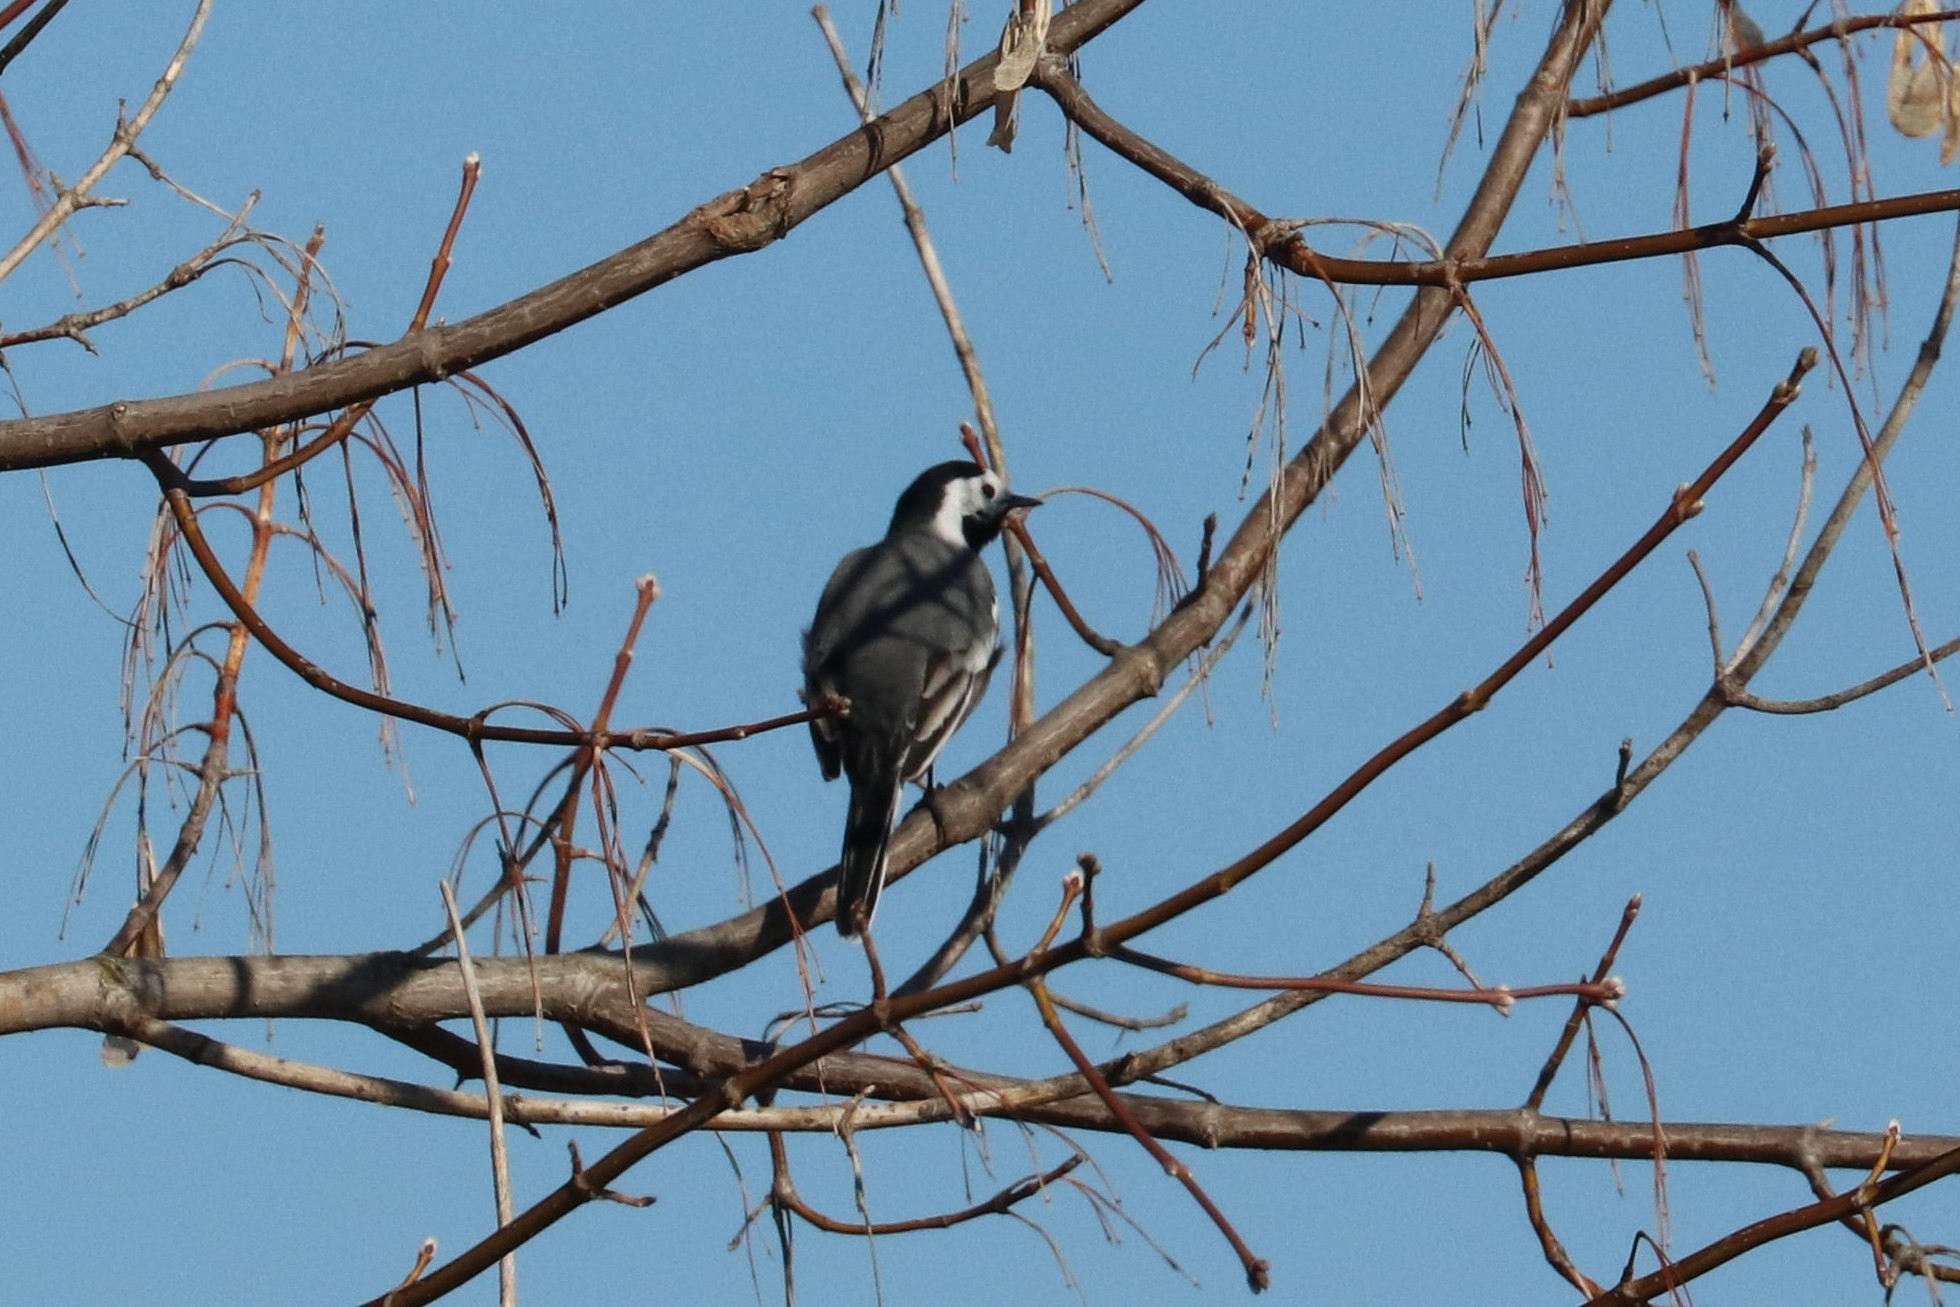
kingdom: Animalia
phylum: Chordata
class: Aves
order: Passeriformes
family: Motacillidae
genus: Motacilla
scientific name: Motacilla alba
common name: White wagtail
